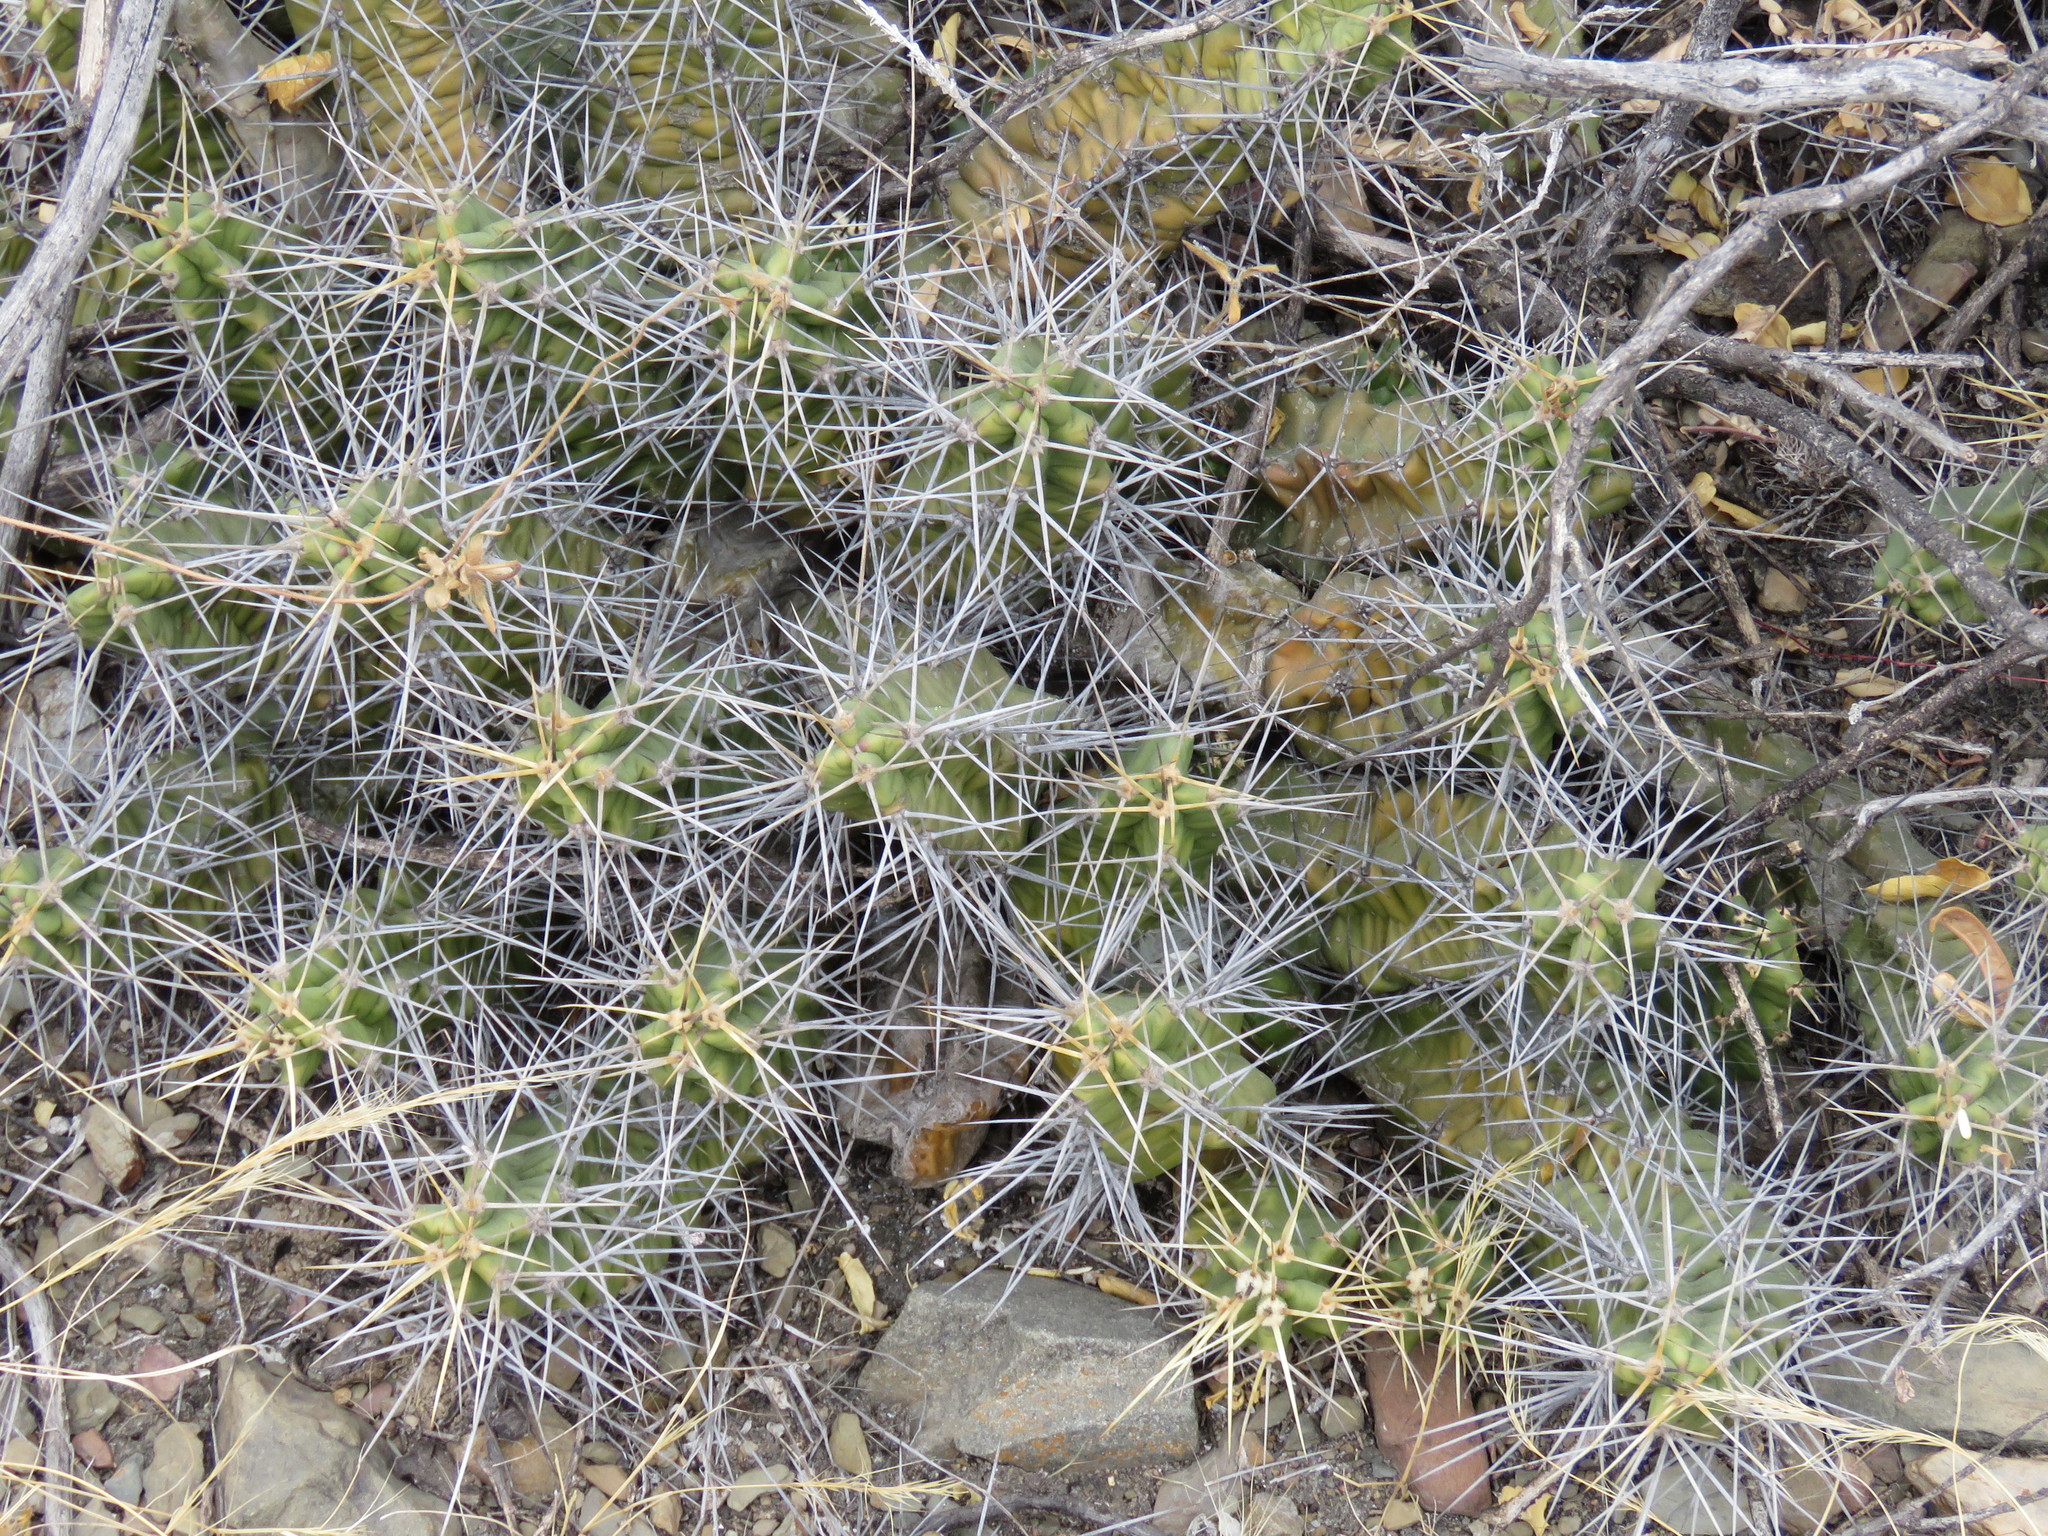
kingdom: Plantae
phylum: Tracheophyta
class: Magnoliopsida
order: Caryophyllales
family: Cactaceae
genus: Echinocereus
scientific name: Echinocereus pentalophus
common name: Ladyfinger cactus
